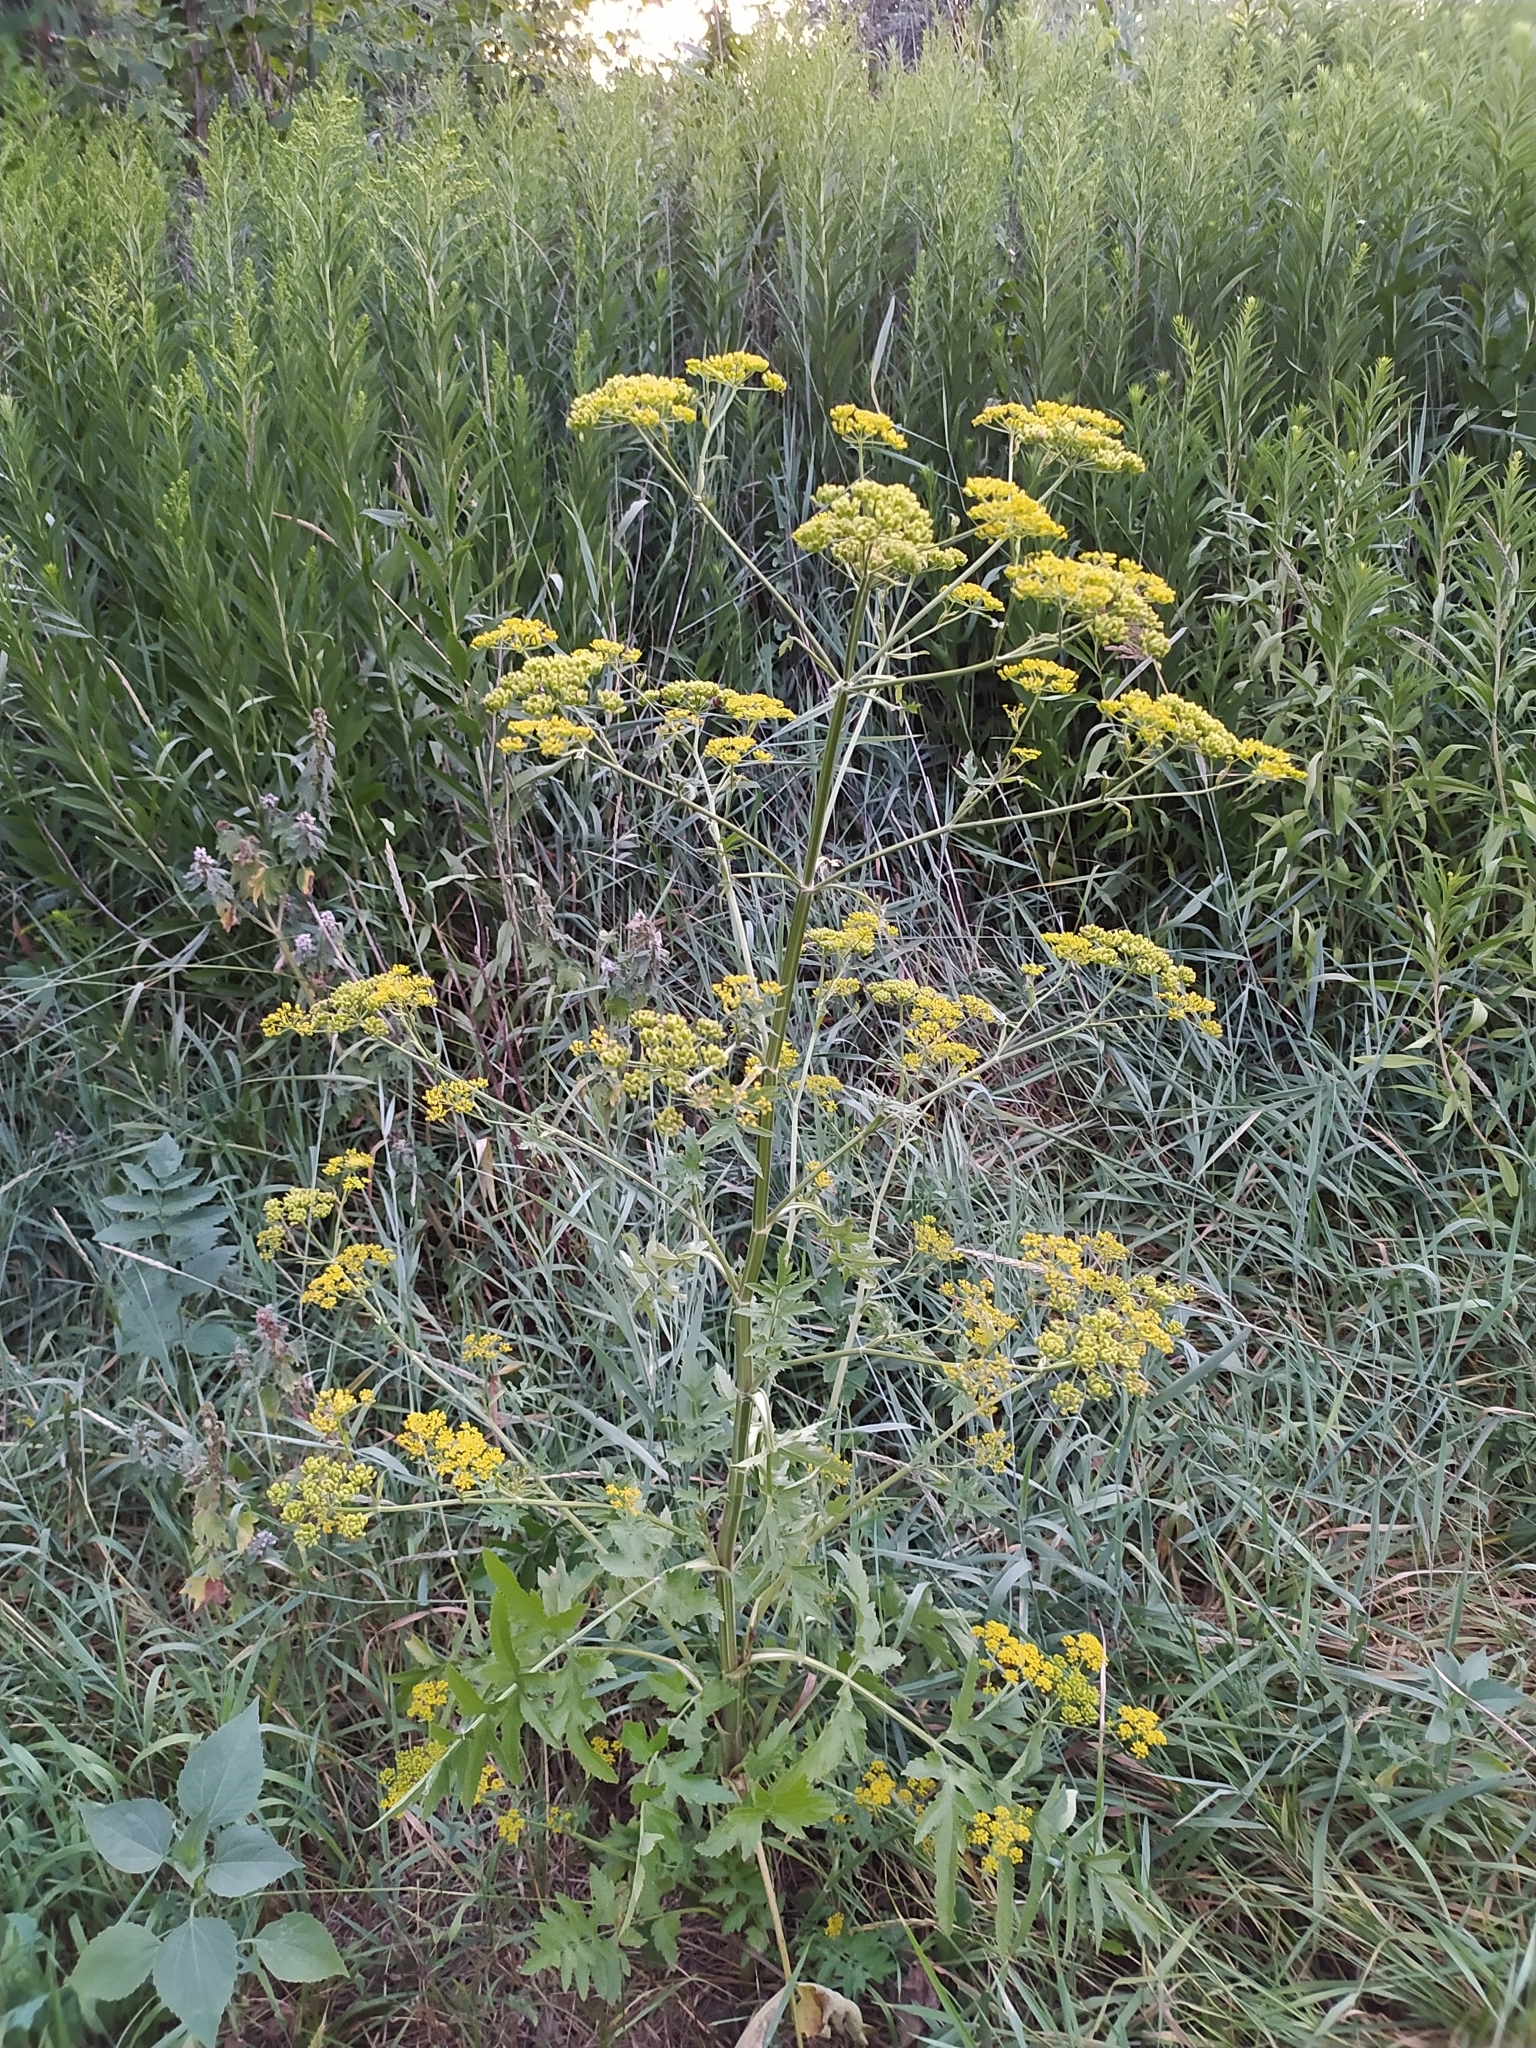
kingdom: Plantae
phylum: Tracheophyta
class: Magnoliopsida
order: Apiales
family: Apiaceae
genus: Pastinaca
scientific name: Pastinaca sativa
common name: Wild parsnip
